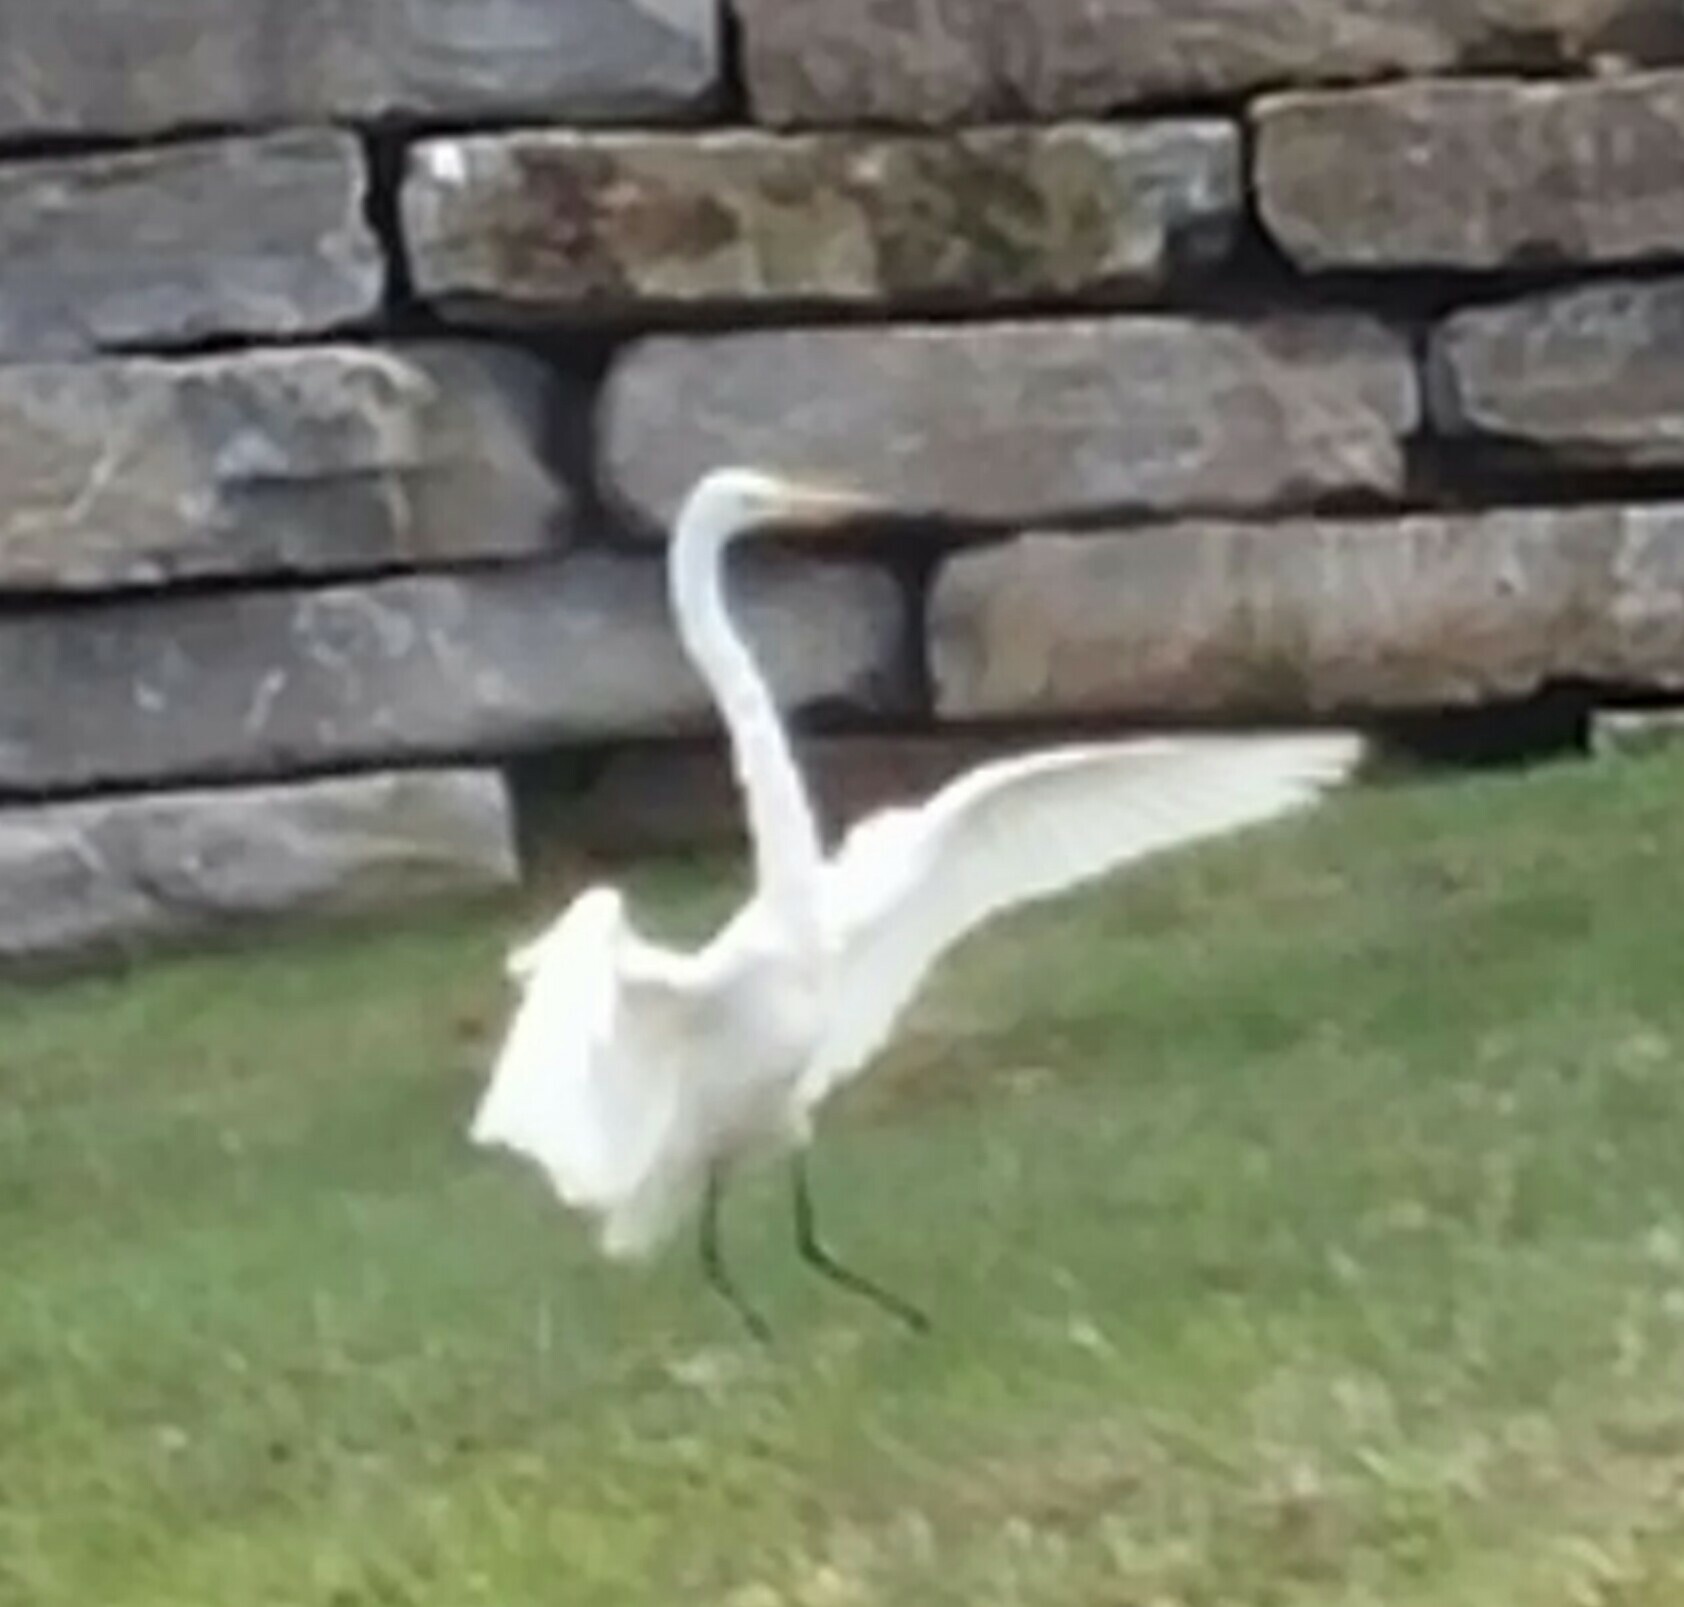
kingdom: Animalia
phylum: Chordata
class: Aves
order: Pelecaniformes
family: Ardeidae
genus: Ardea
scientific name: Ardea alba
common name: Great egret
